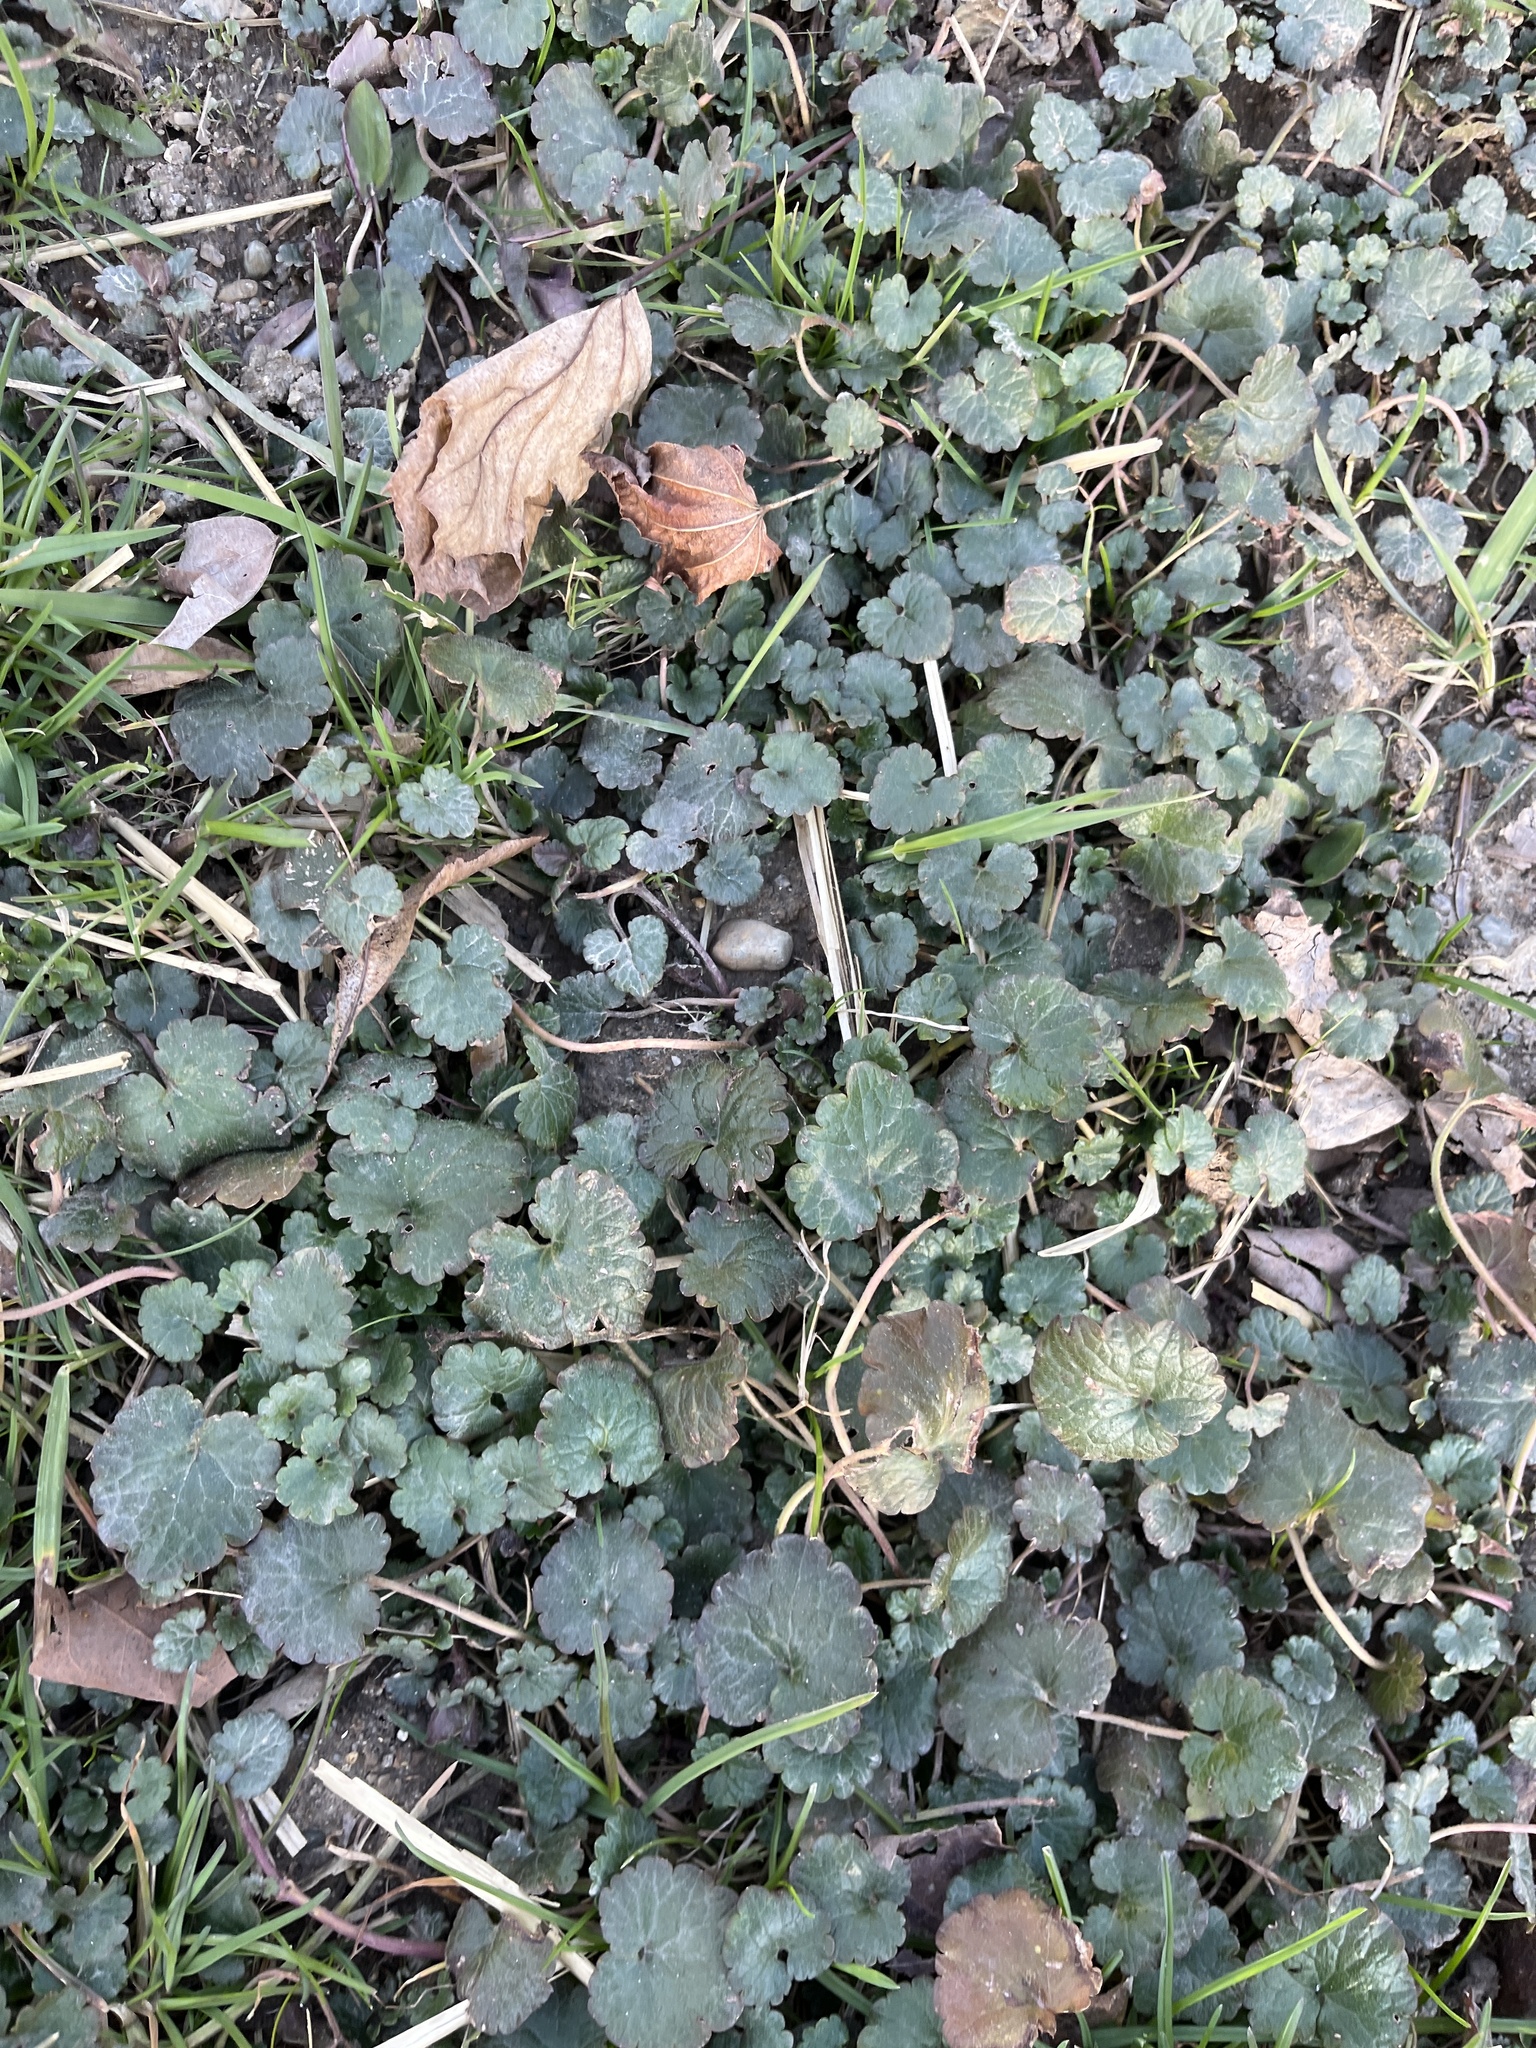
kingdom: Plantae
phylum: Tracheophyta
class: Magnoliopsida
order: Lamiales
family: Lamiaceae
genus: Glechoma
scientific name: Glechoma hederacea
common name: Ground ivy
